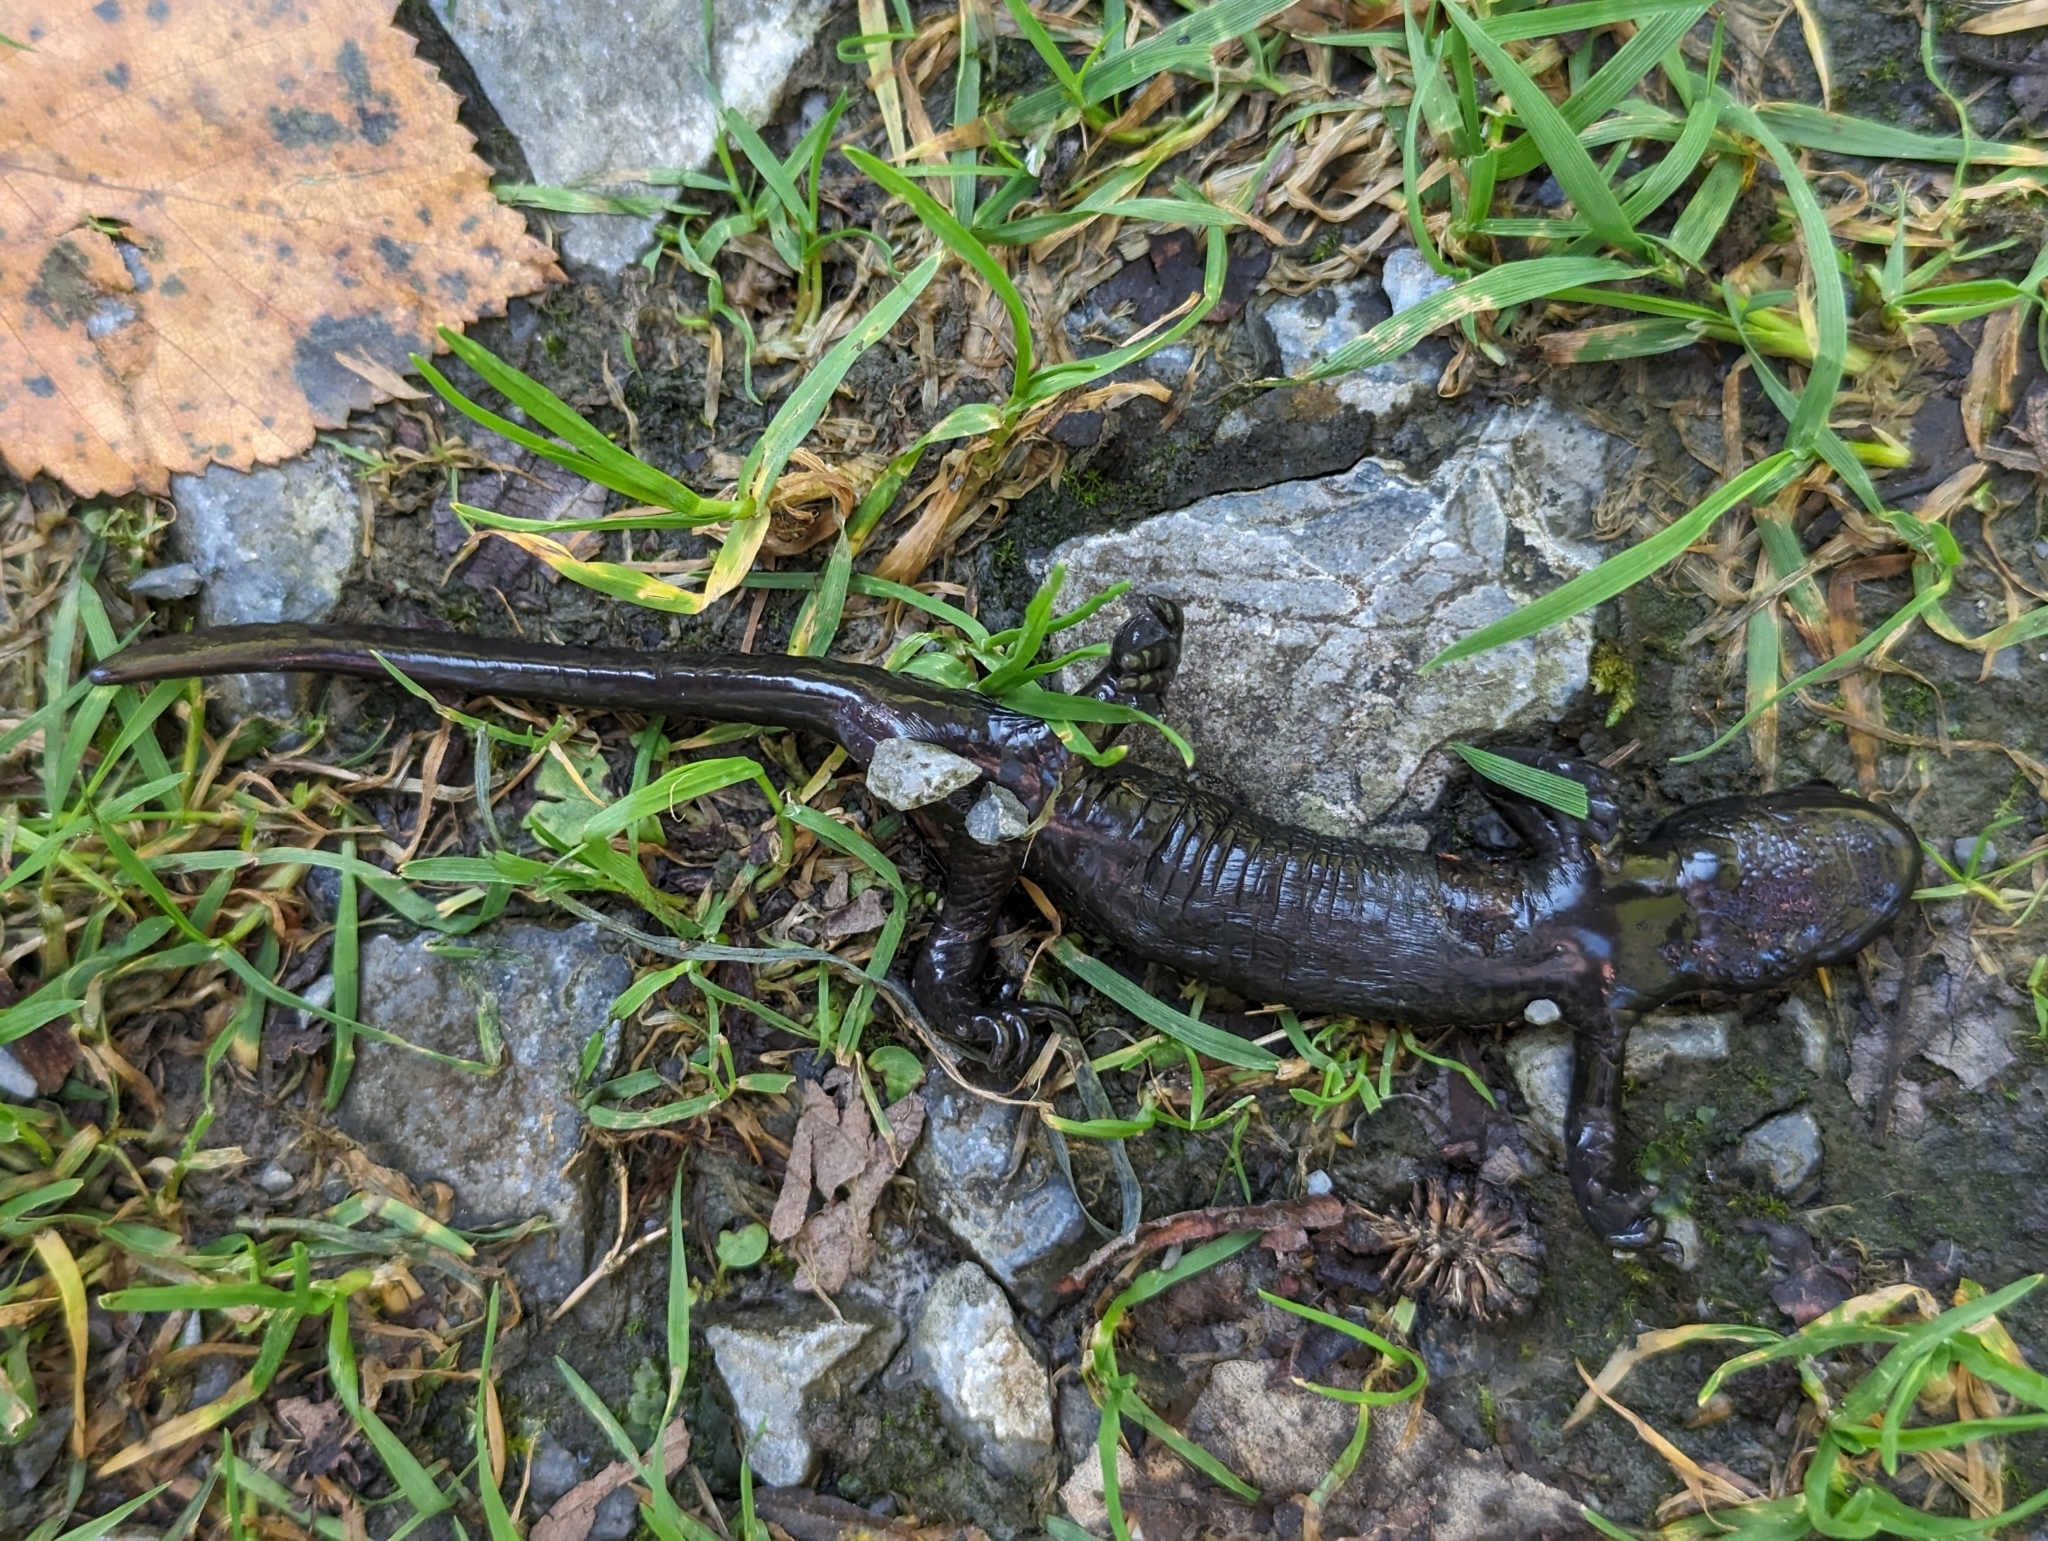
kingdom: Animalia
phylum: Chordata
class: Amphibia
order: Caudata
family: Salamandridae
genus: Salamandra
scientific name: Salamandra atra
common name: Alpine salamander
